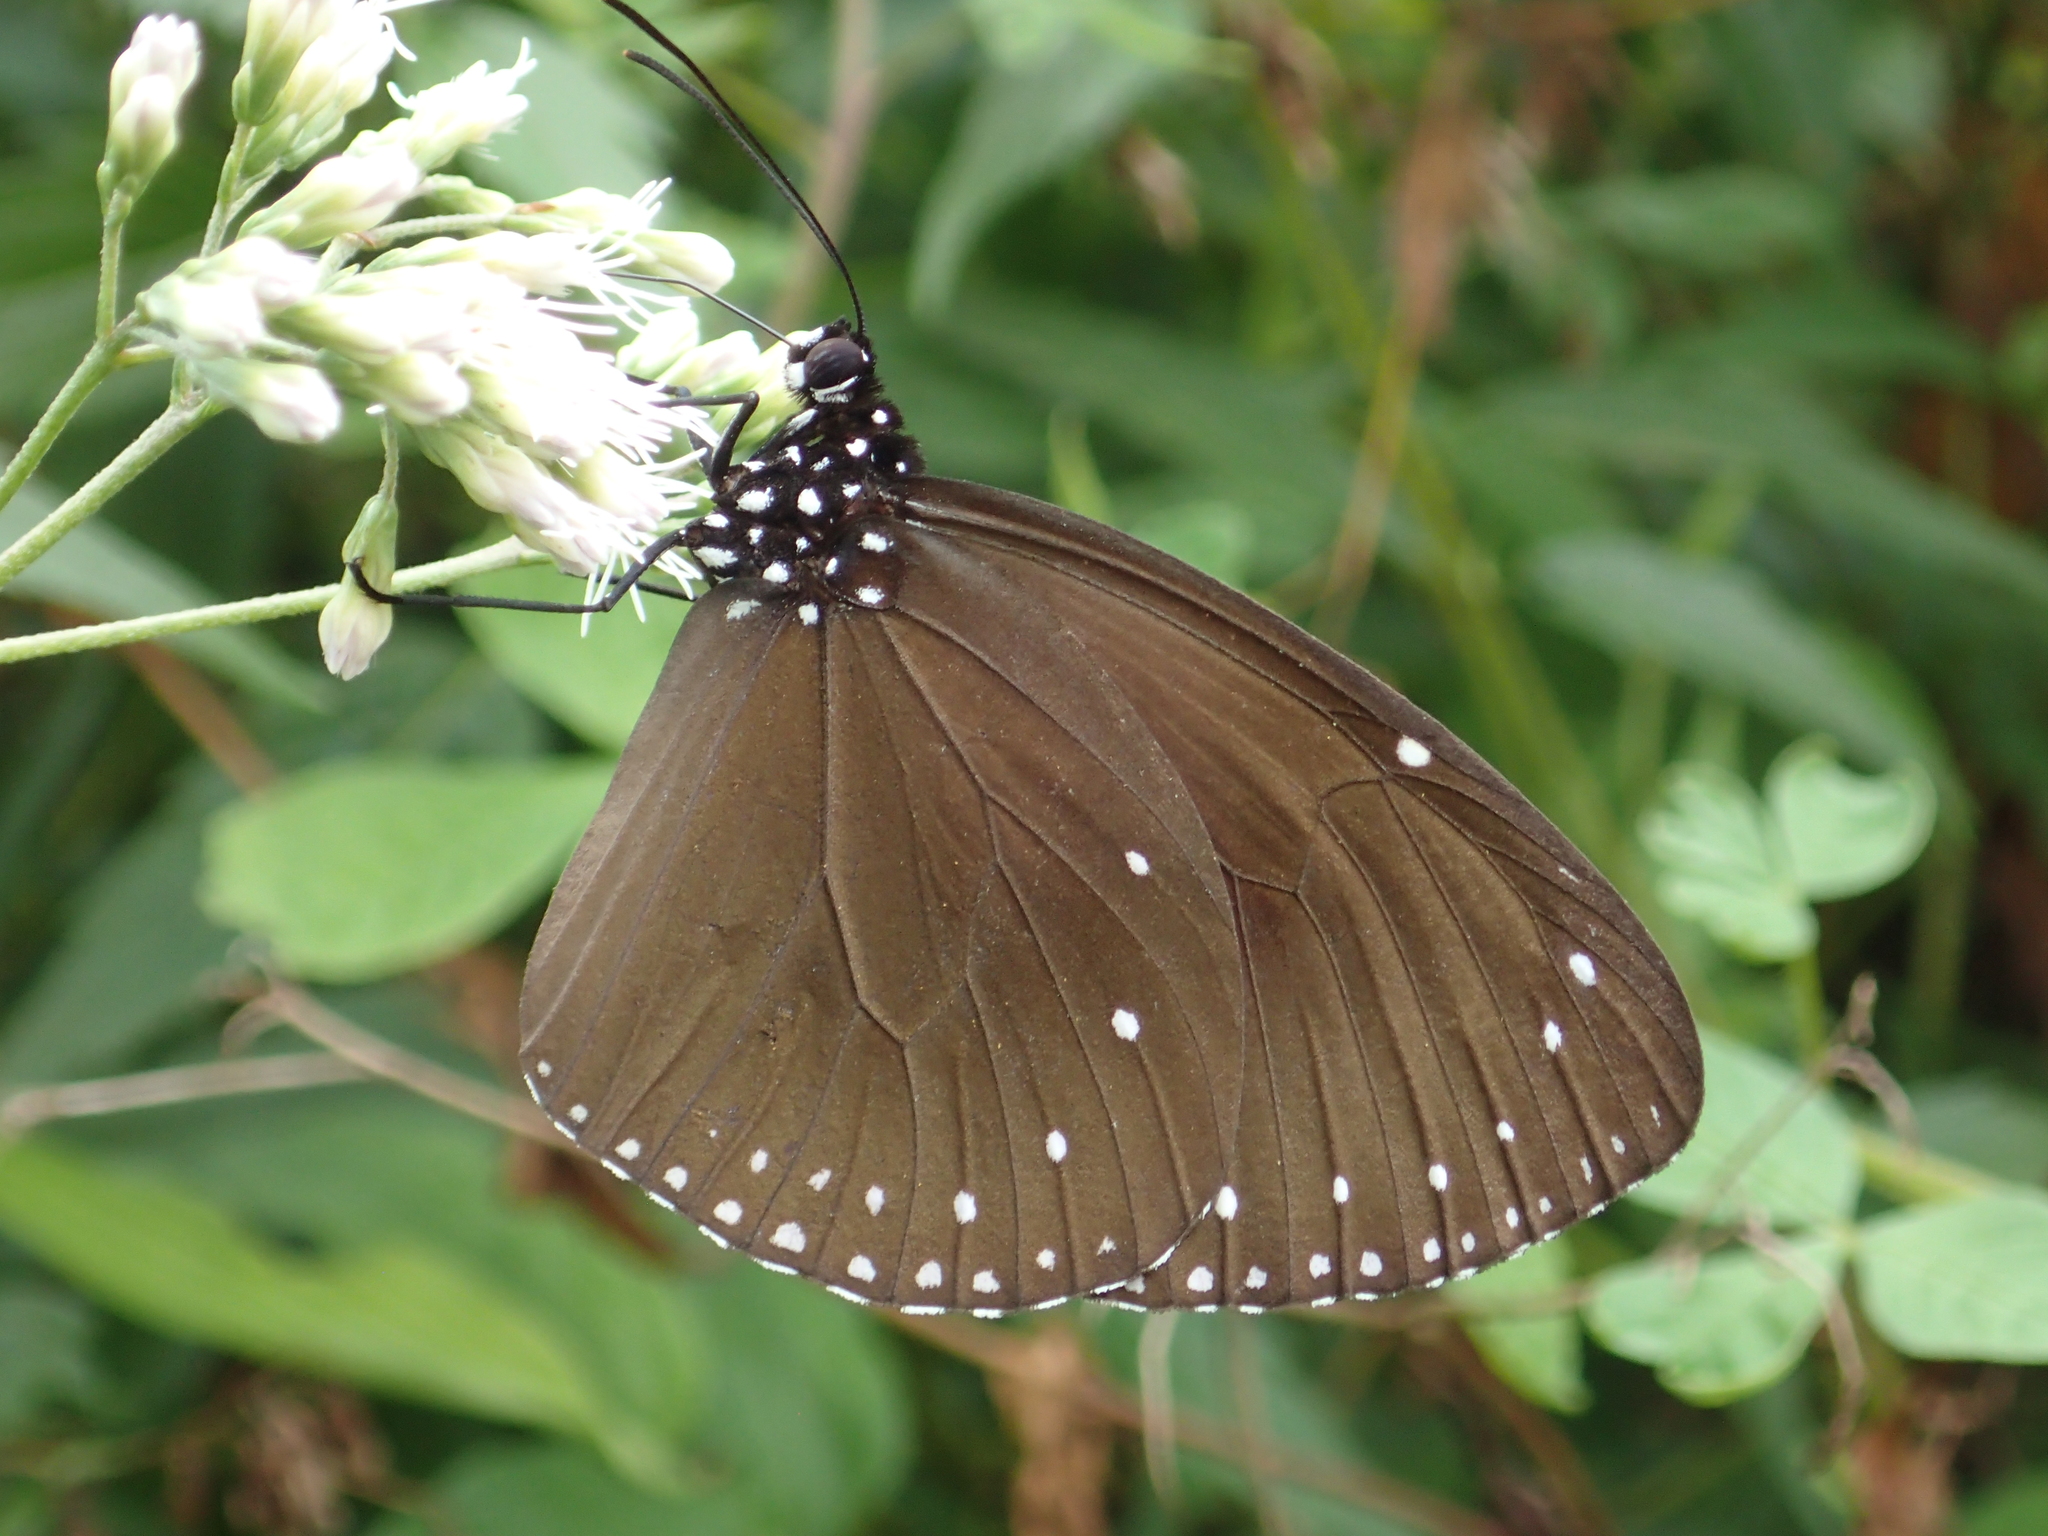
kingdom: Animalia
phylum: Arthropoda
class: Insecta
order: Lepidoptera
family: Nymphalidae
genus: Euploea
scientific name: Euploea tulliolus
